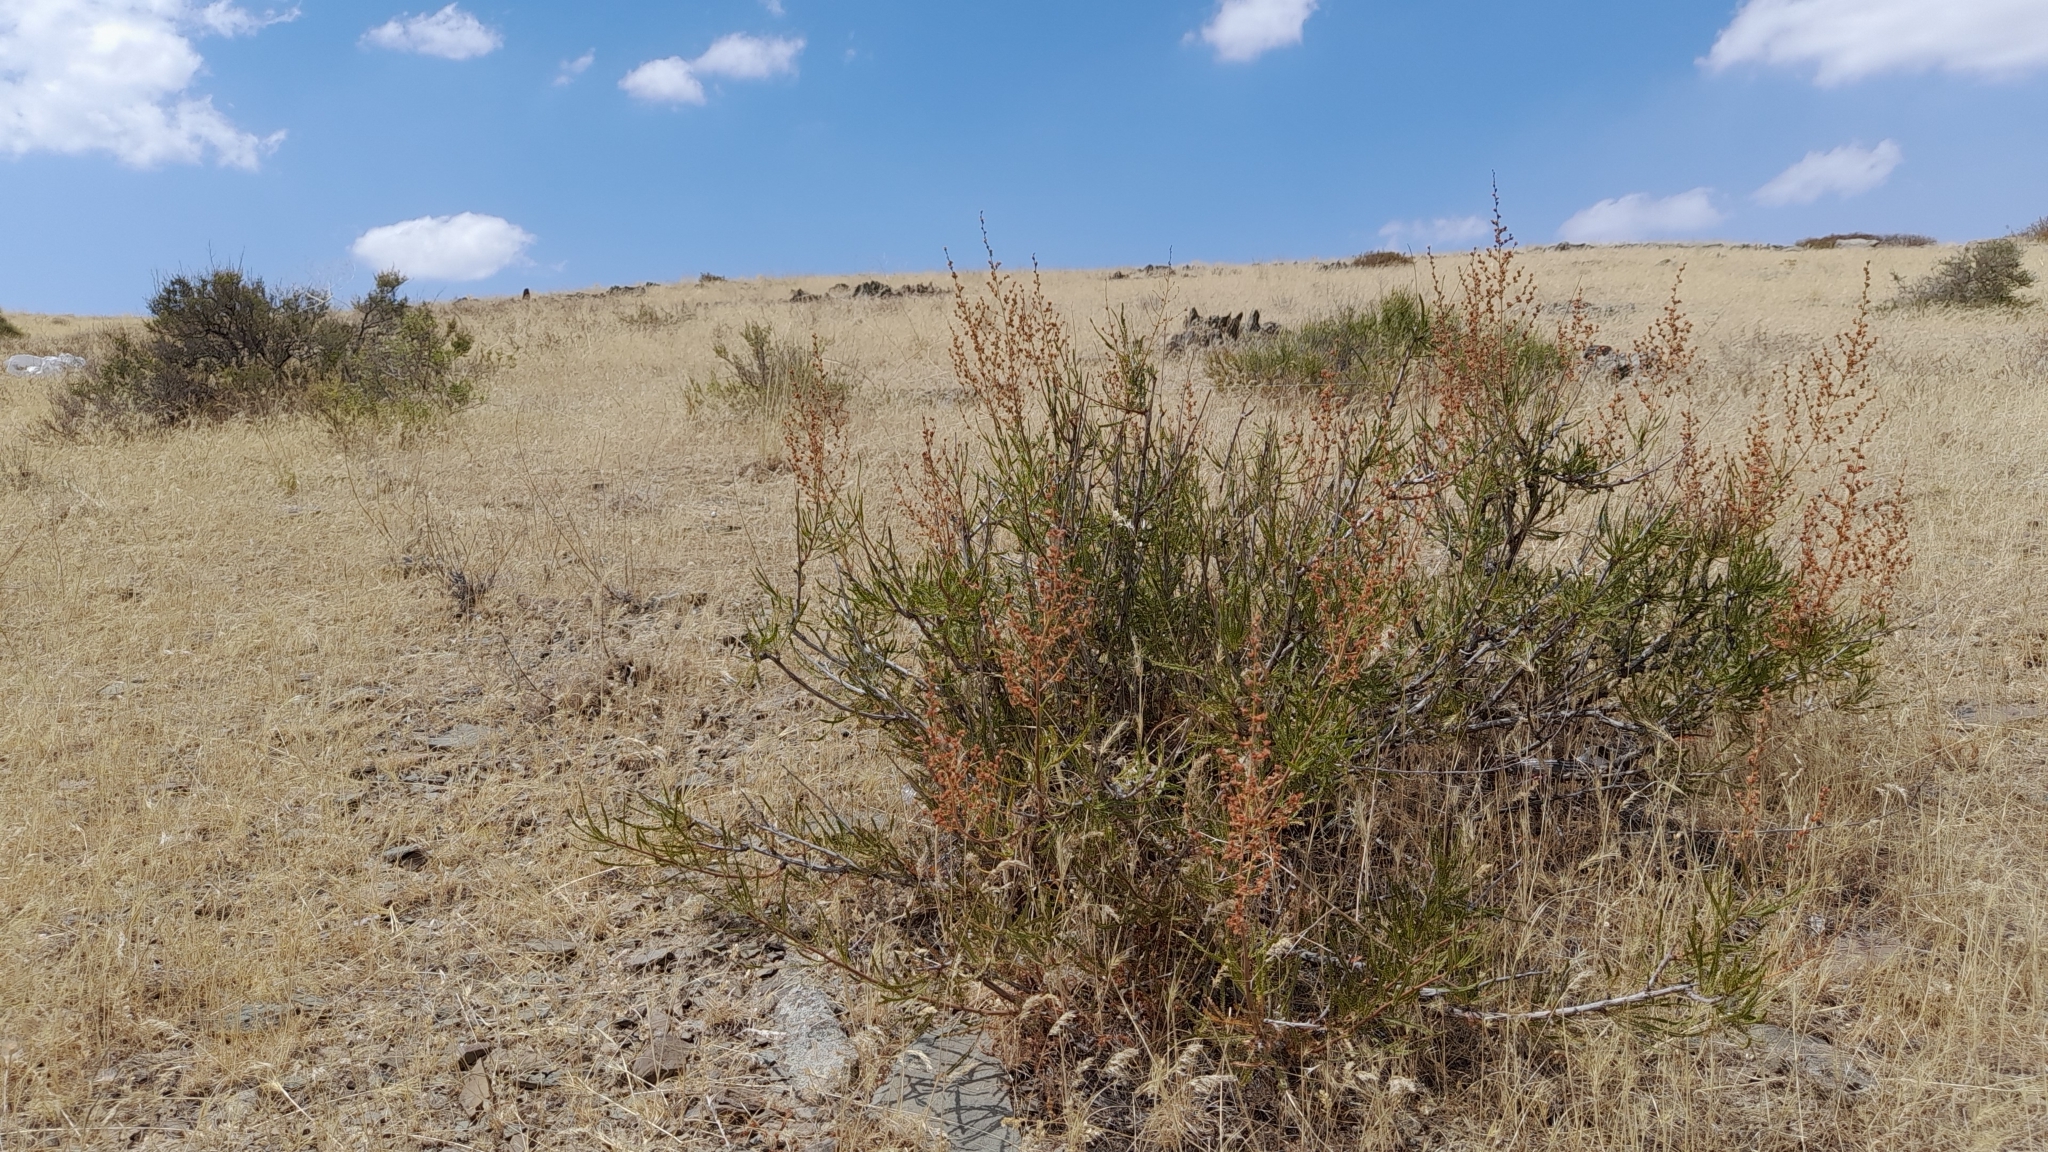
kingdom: Plantae
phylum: Tracheophyta
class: Magnoliopsida
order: Rosales
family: Rosaceae
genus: Spiraeanthus
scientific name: Spiraeanthus schrenckianus
